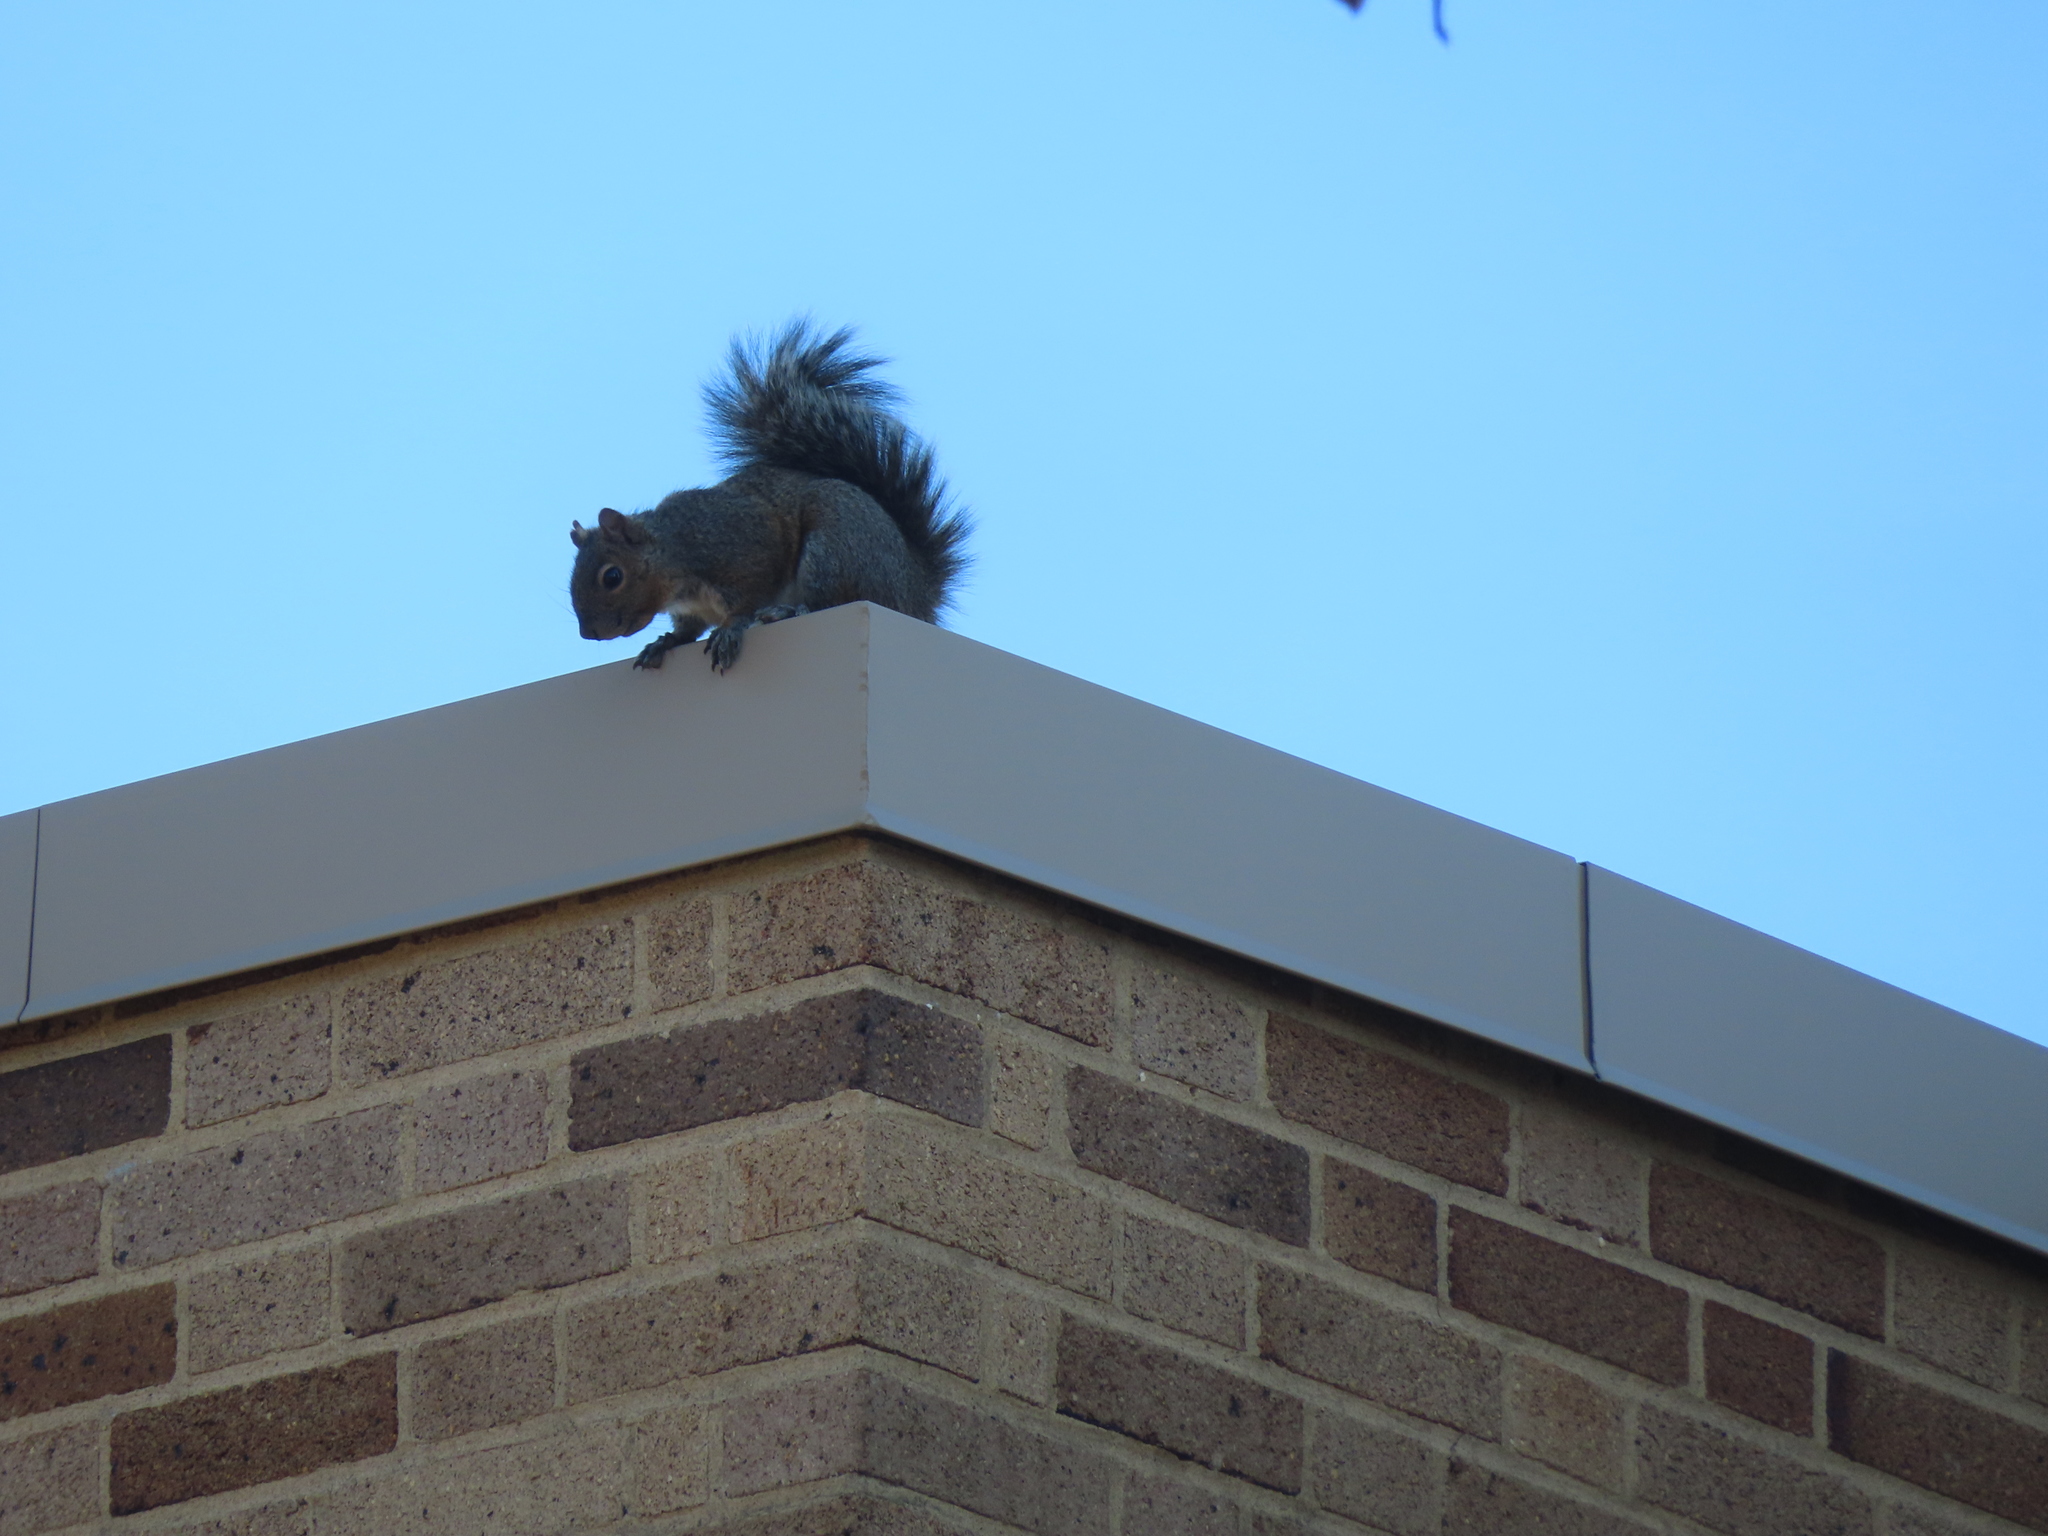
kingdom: Animalia
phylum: Chordata
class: Mammalia
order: Rodentia
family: Sciuridae
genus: Sciurus
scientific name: Sciurus carolinensis
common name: Eastern gray squirrel
